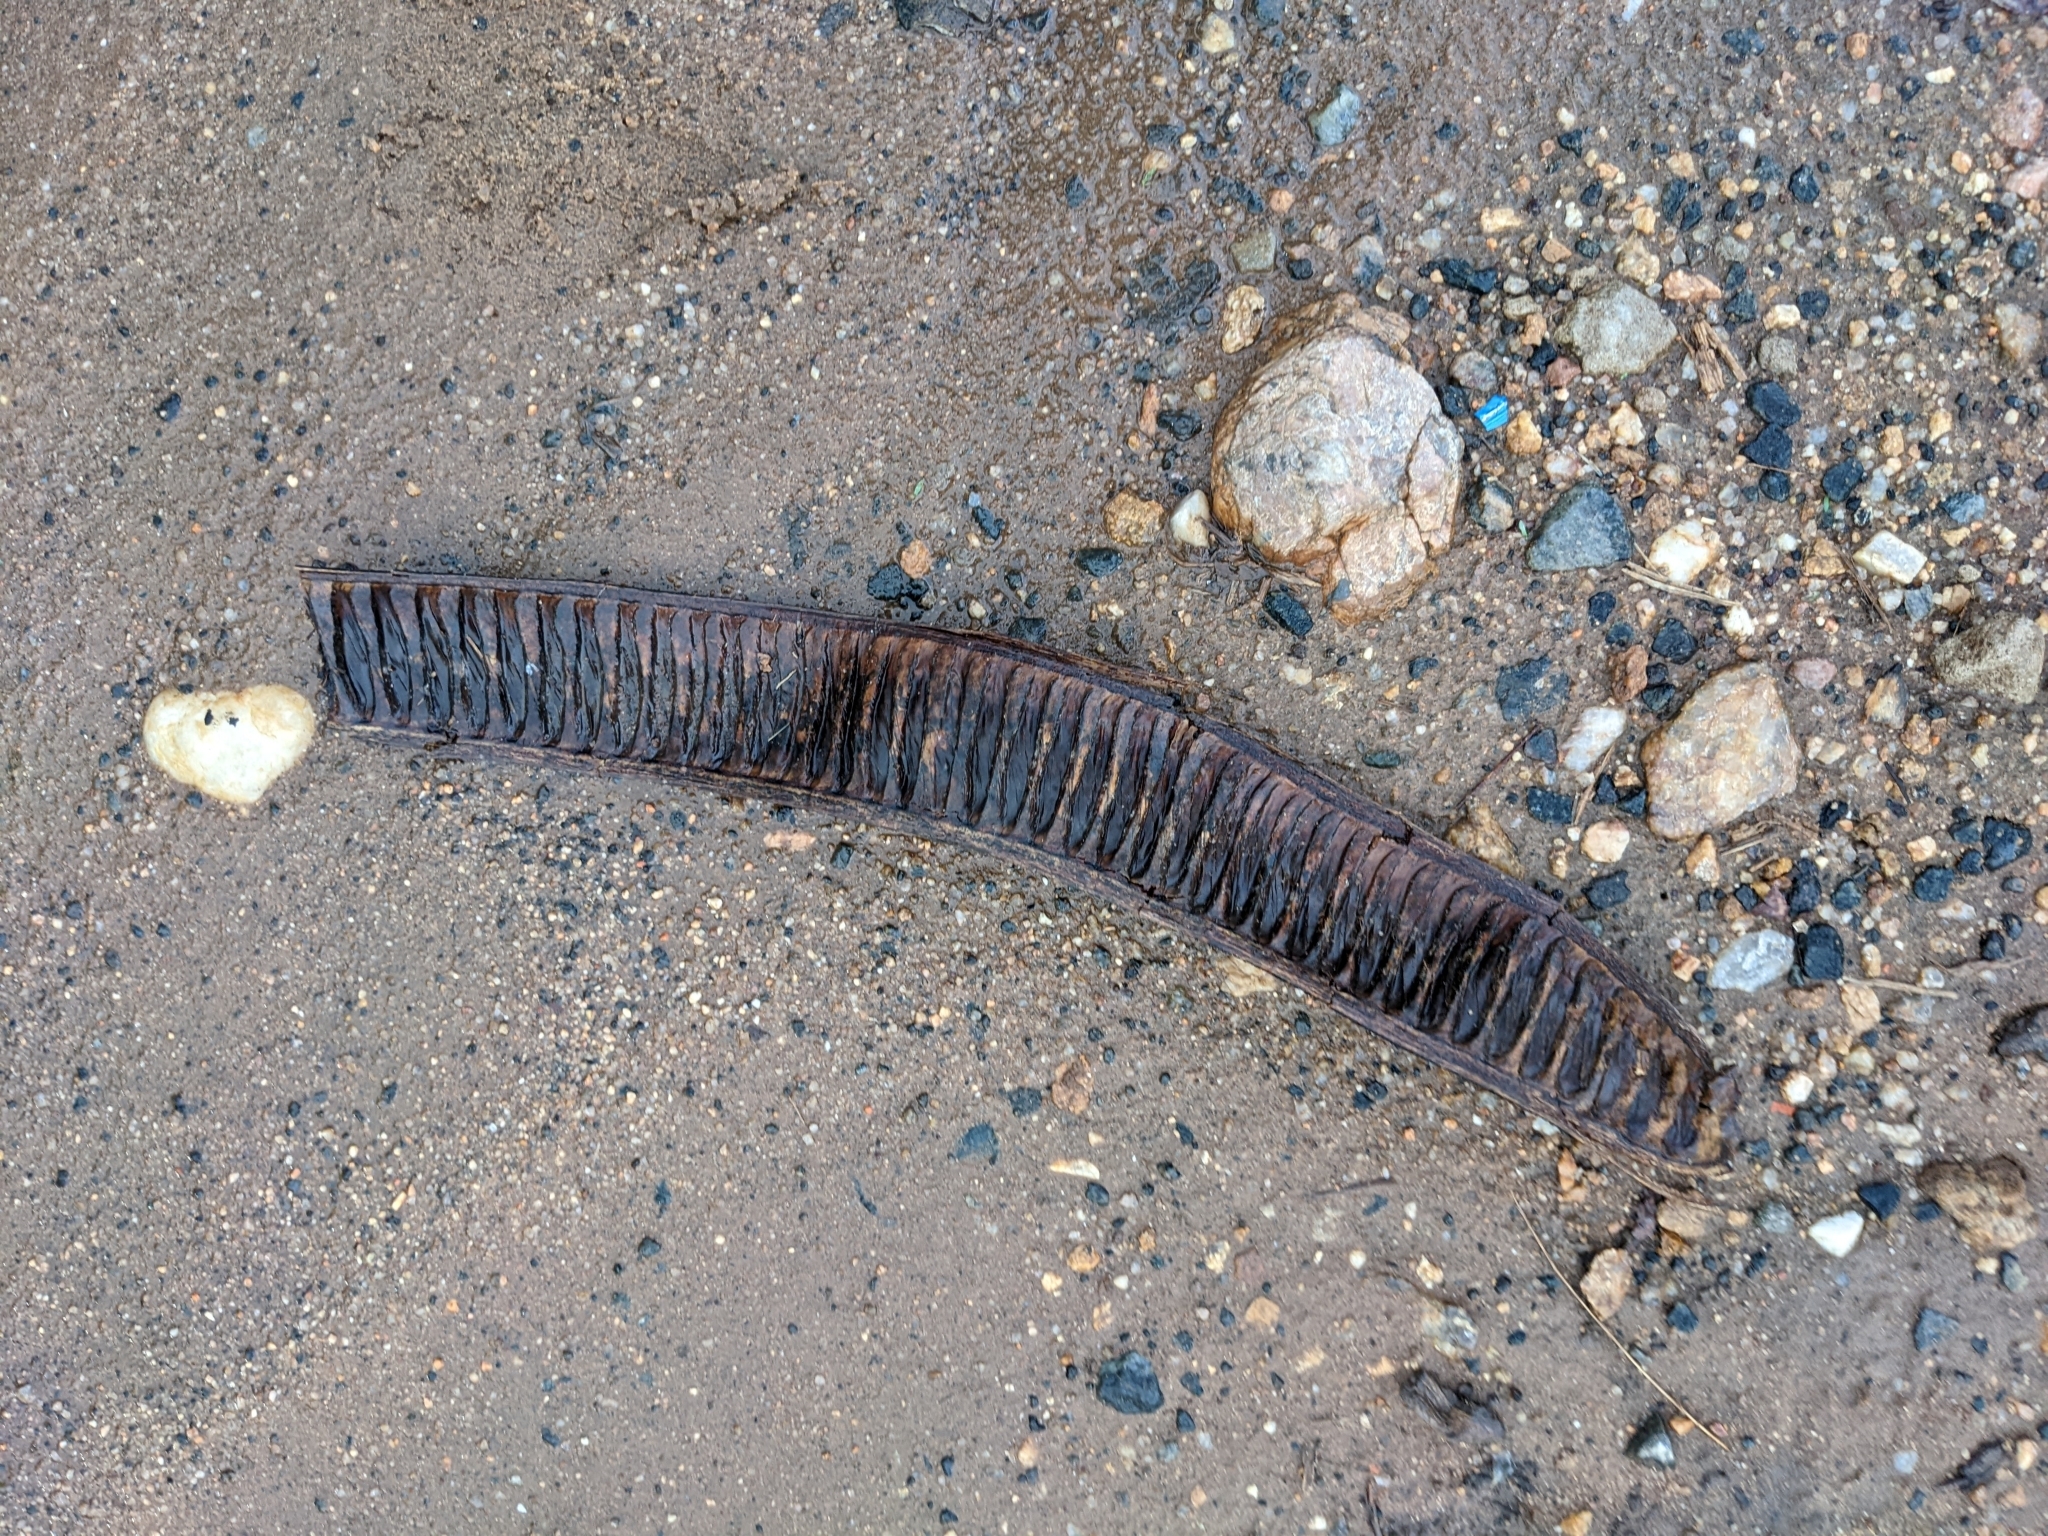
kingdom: Plantae
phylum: Tracheophyta
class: Magnoliopsida
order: Fabales
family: Fabaceae
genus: Delonix
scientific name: Delonix regia
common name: Royal poinciana
